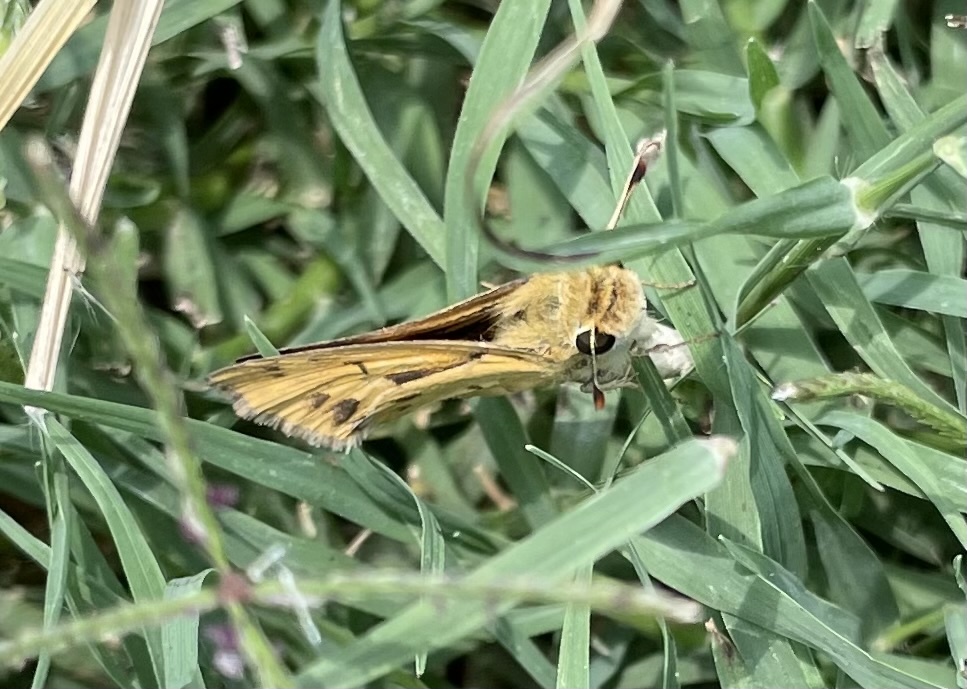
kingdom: Animalia
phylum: Arthropoda
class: Insecta
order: Lepidoptera
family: Hesperiidae
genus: Hylephila
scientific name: Hylephila phyleus
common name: Fiery skipper
